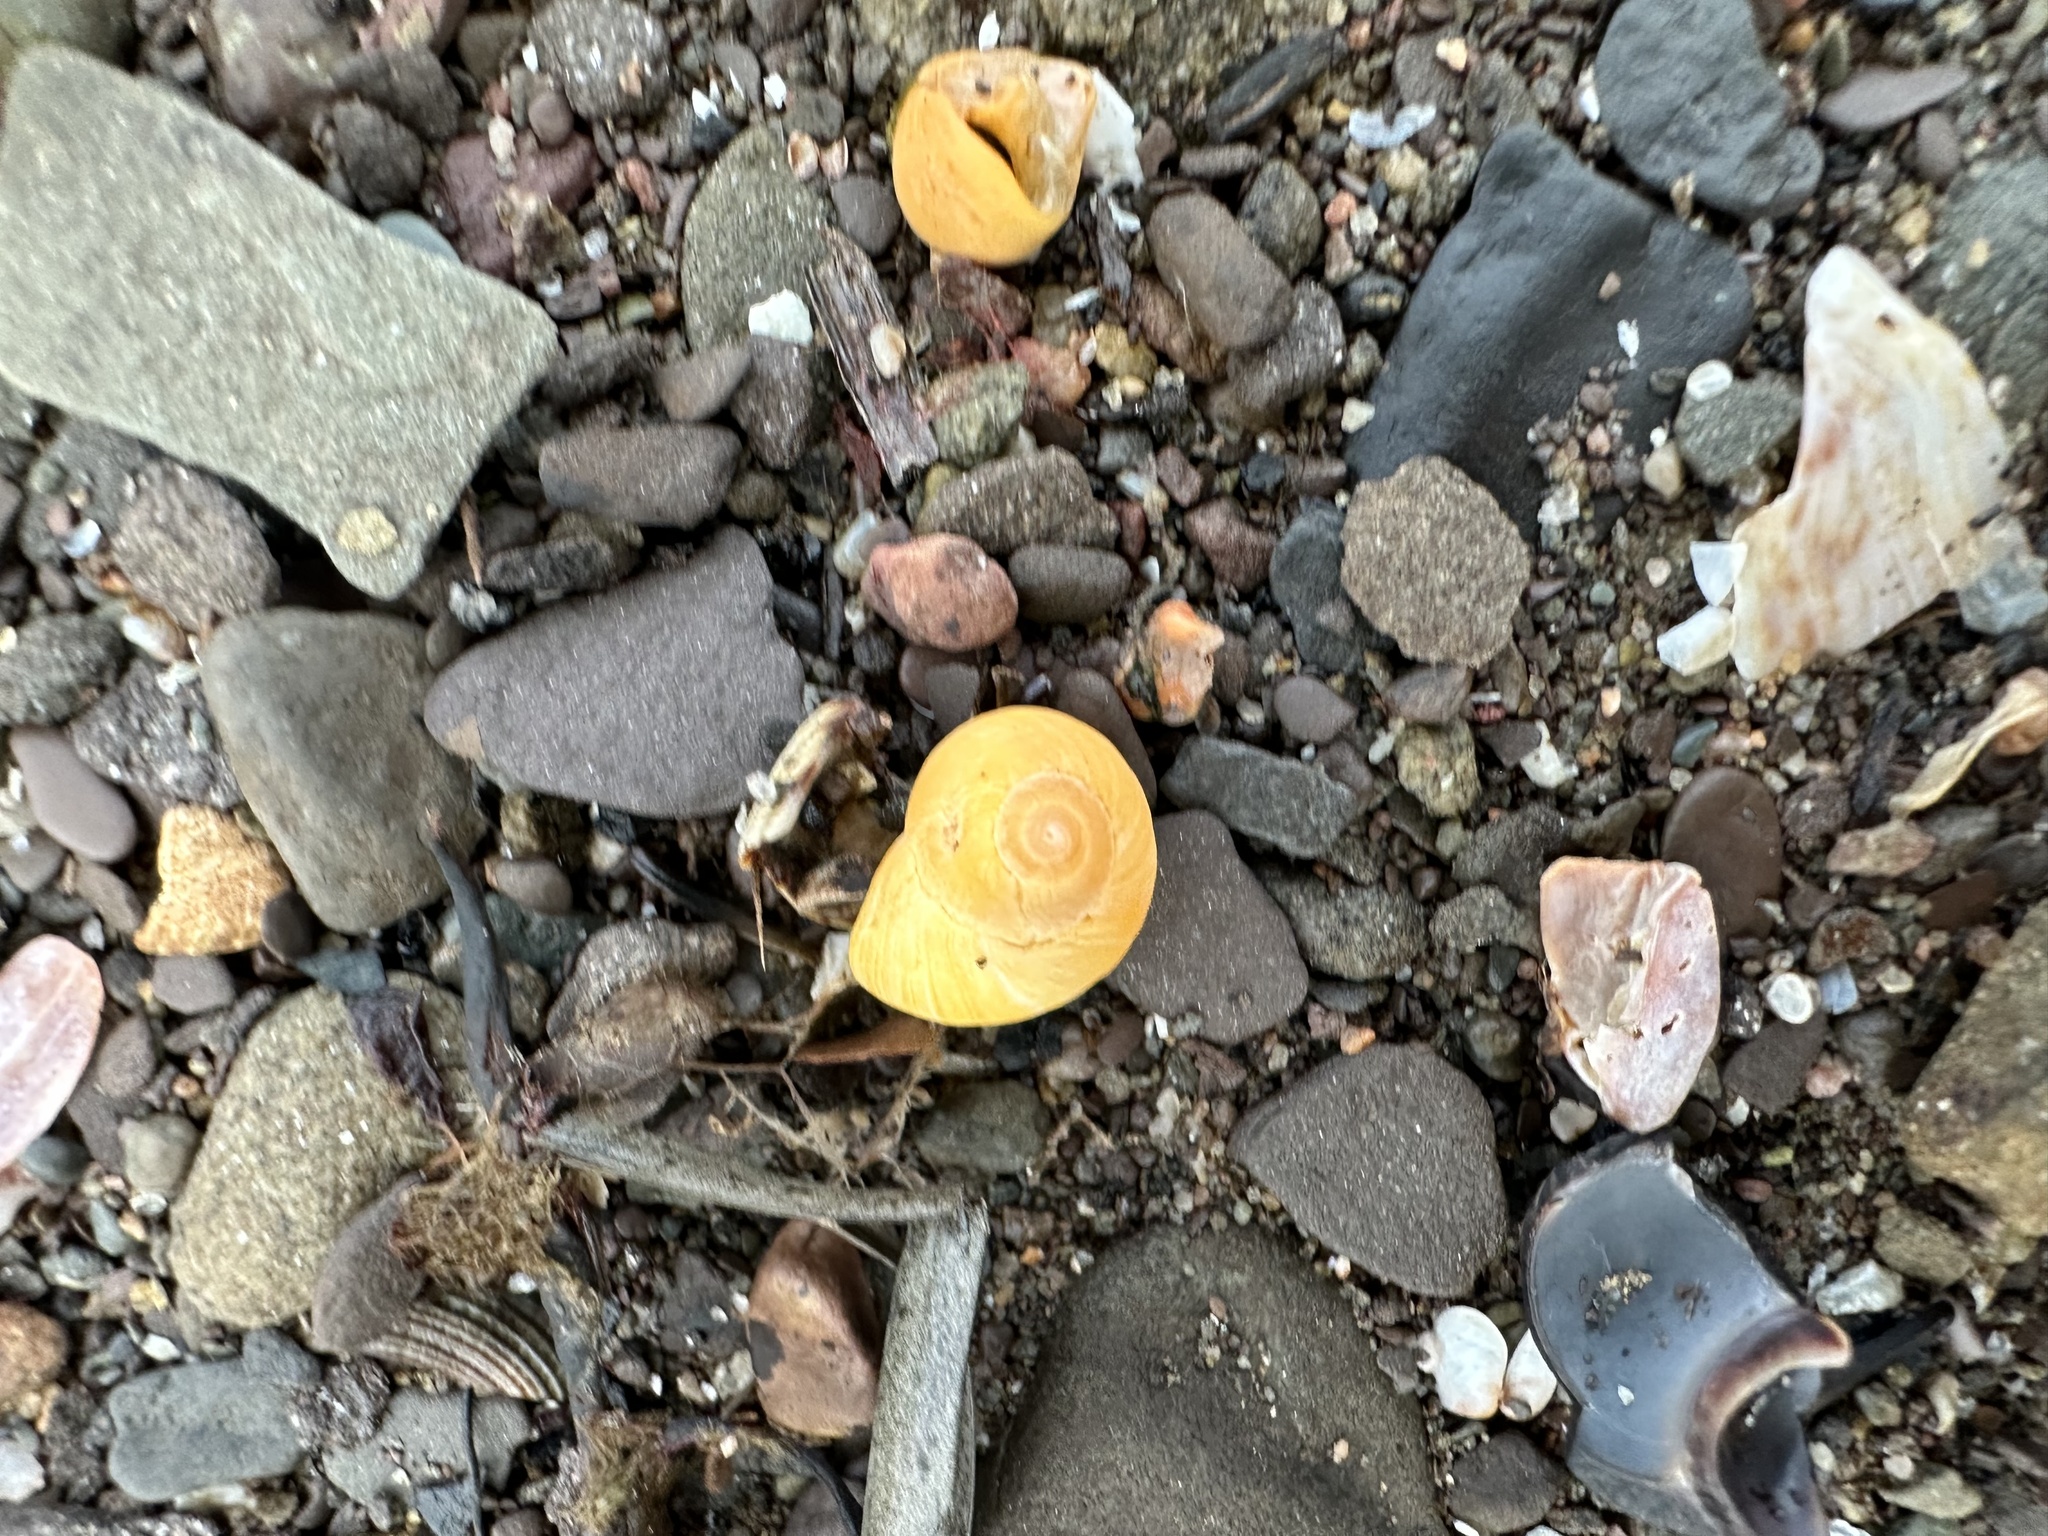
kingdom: Animalia
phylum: Mollusca
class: Gastropoda
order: Littorinimorpha
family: Littorinidae
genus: Littorina
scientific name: Littorina obtusata
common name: Flat periwinkle
